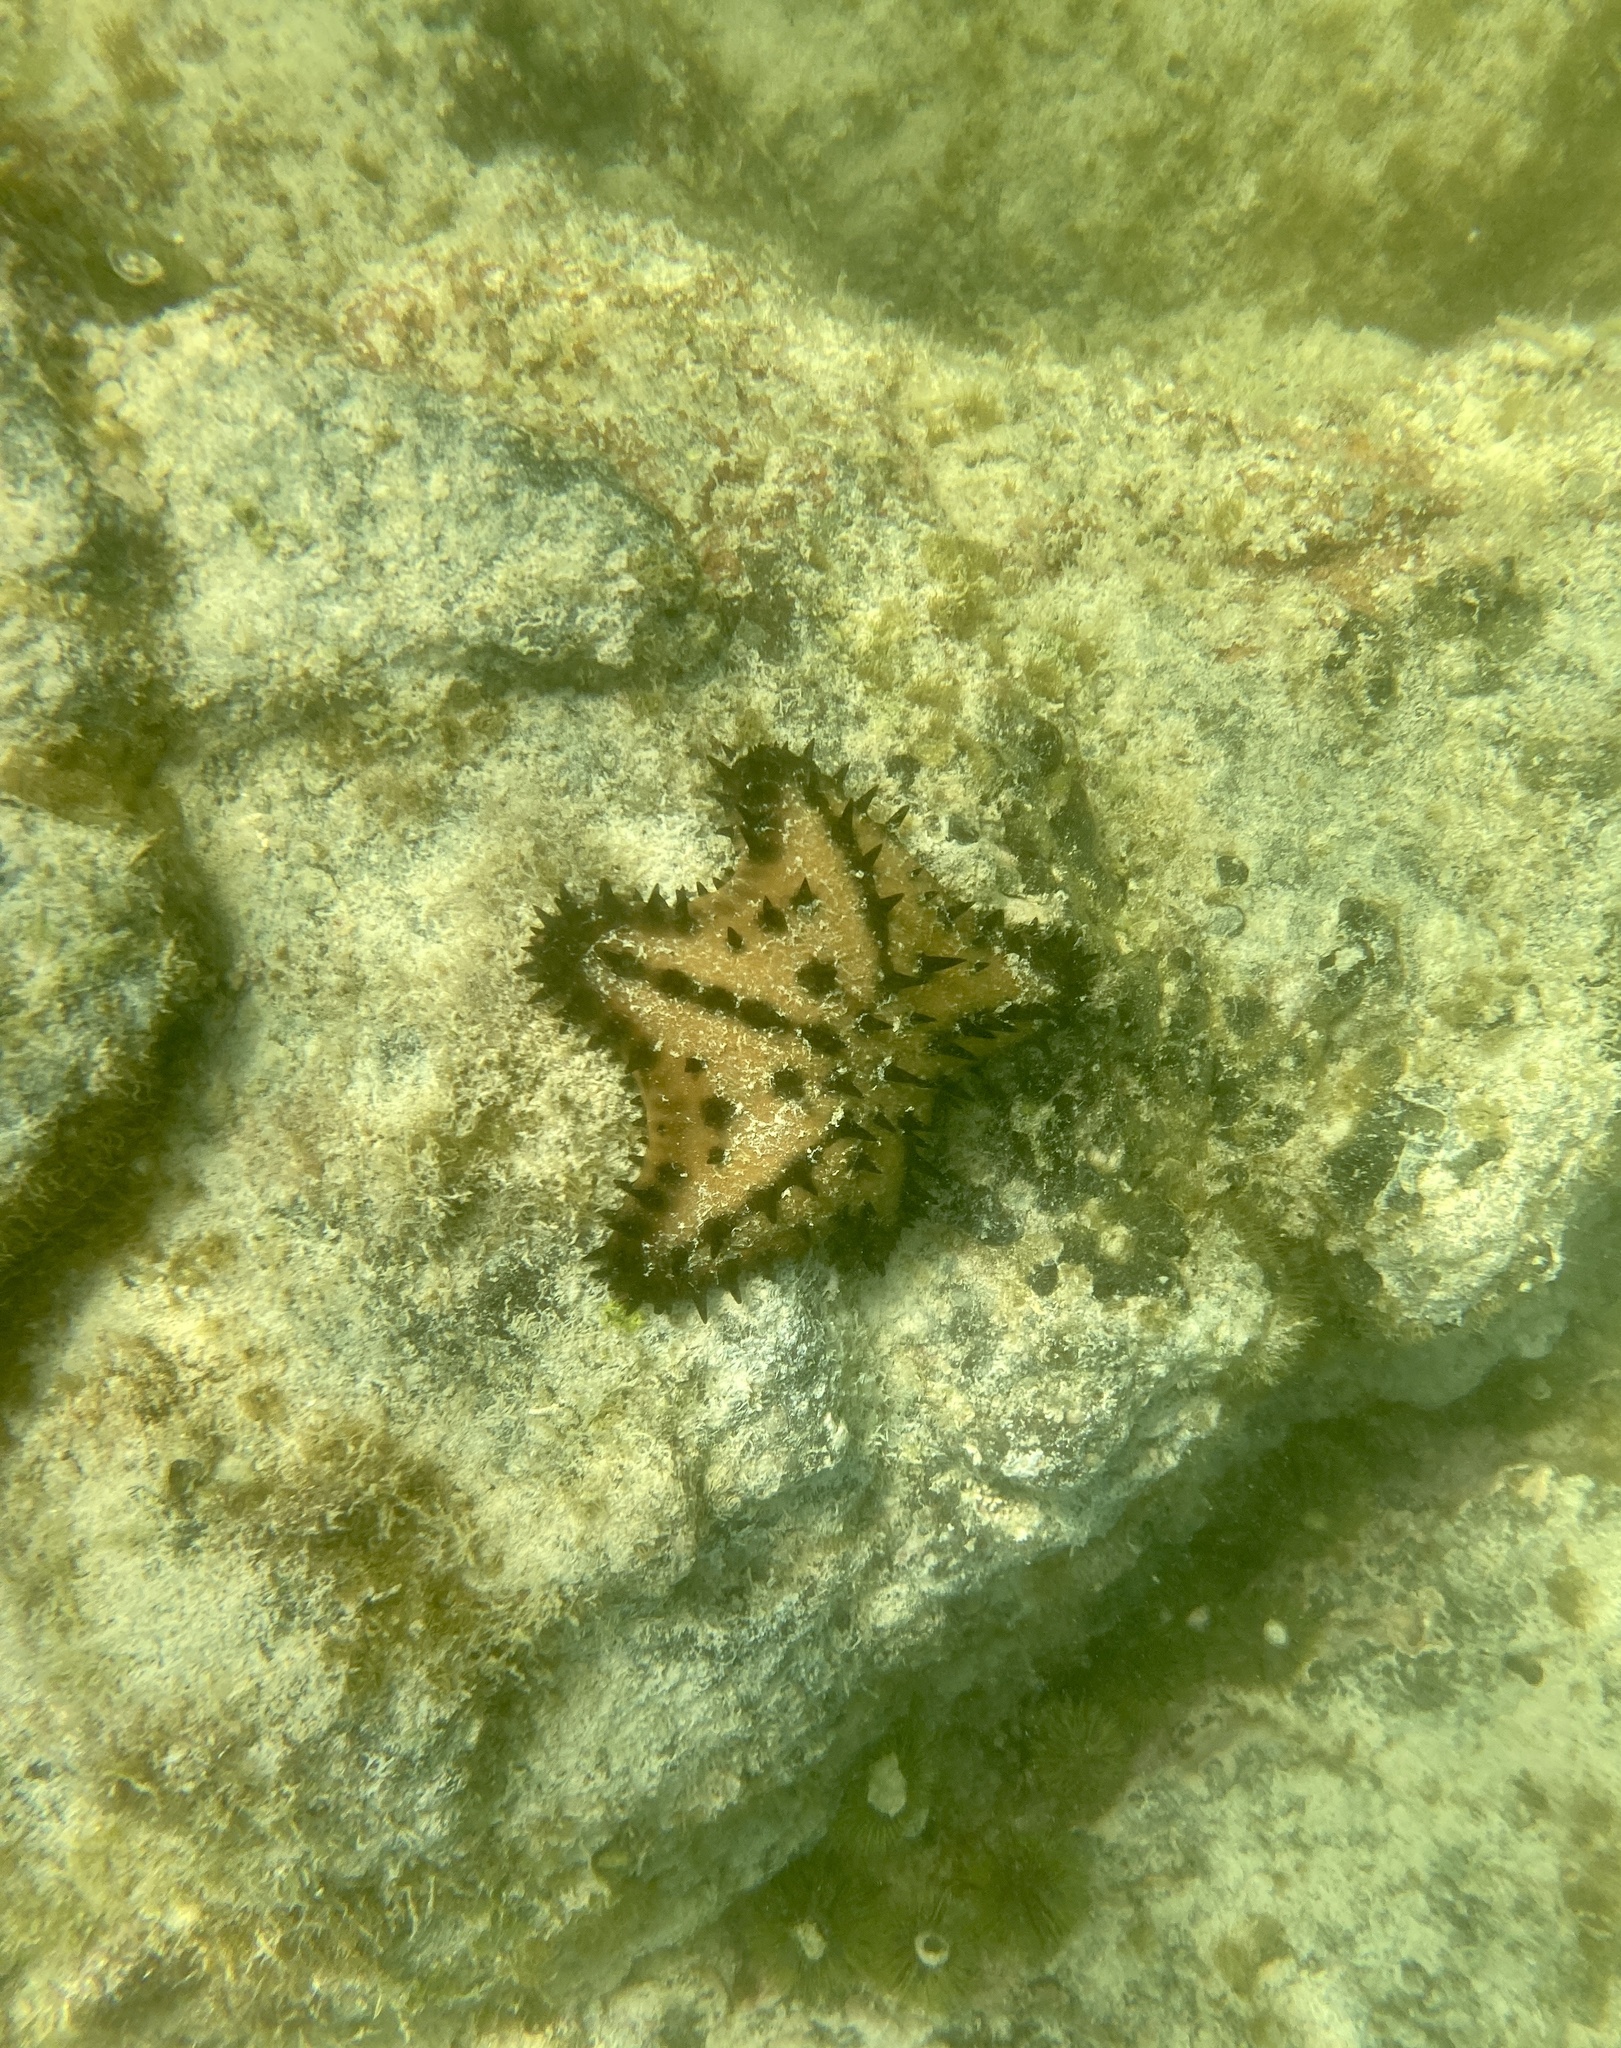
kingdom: Animalia
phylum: Echinodermata
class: Asteroidea
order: Valvatida
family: Oreasteridae
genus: Nidorellia
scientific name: Nidorellia armata
